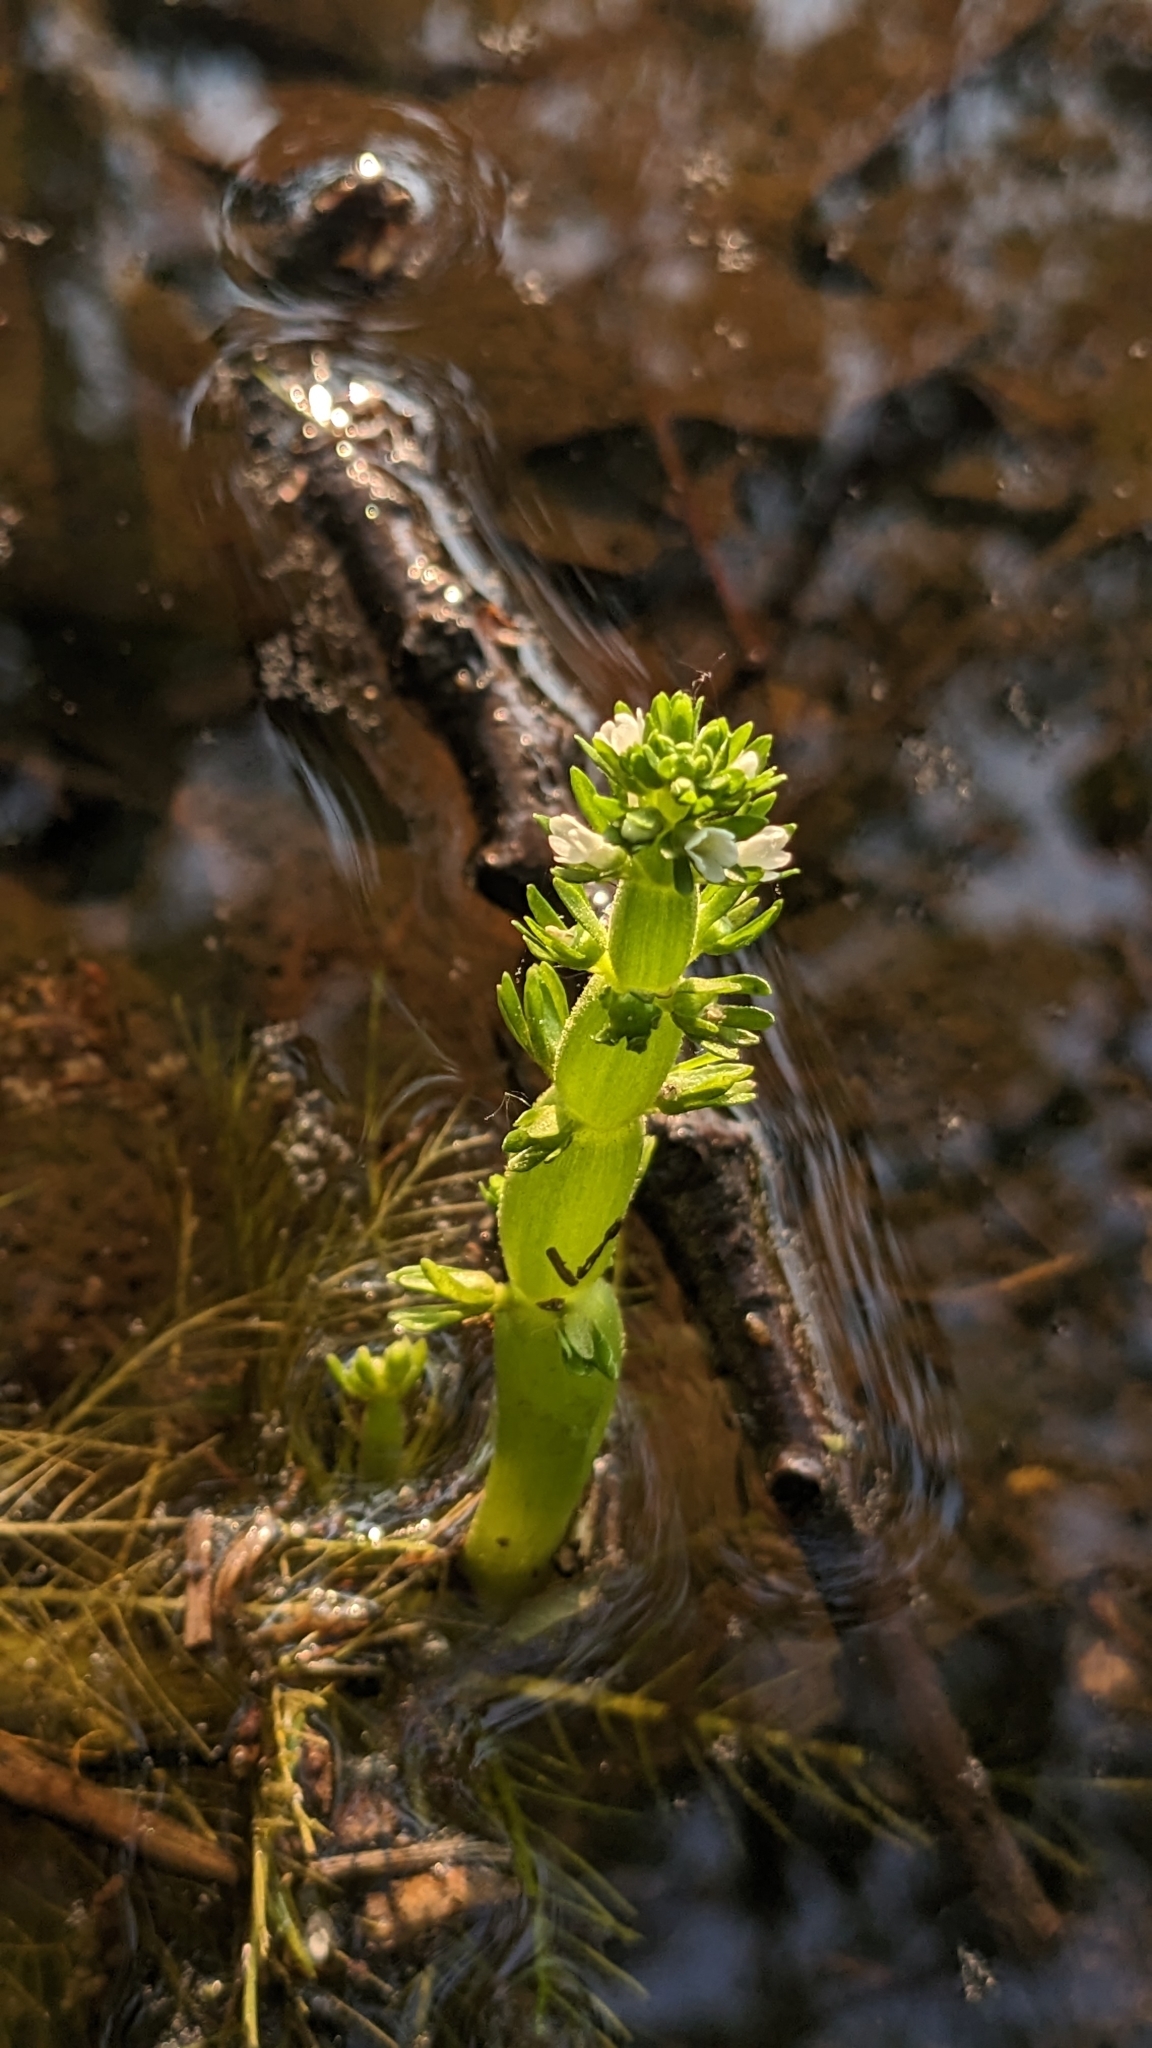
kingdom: Plantae
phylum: Tracheophyta
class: Magnoliopsida
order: Ericales
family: Primulaceae
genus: Hottonia
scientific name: Hottonia inflata
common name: American featherfoil
